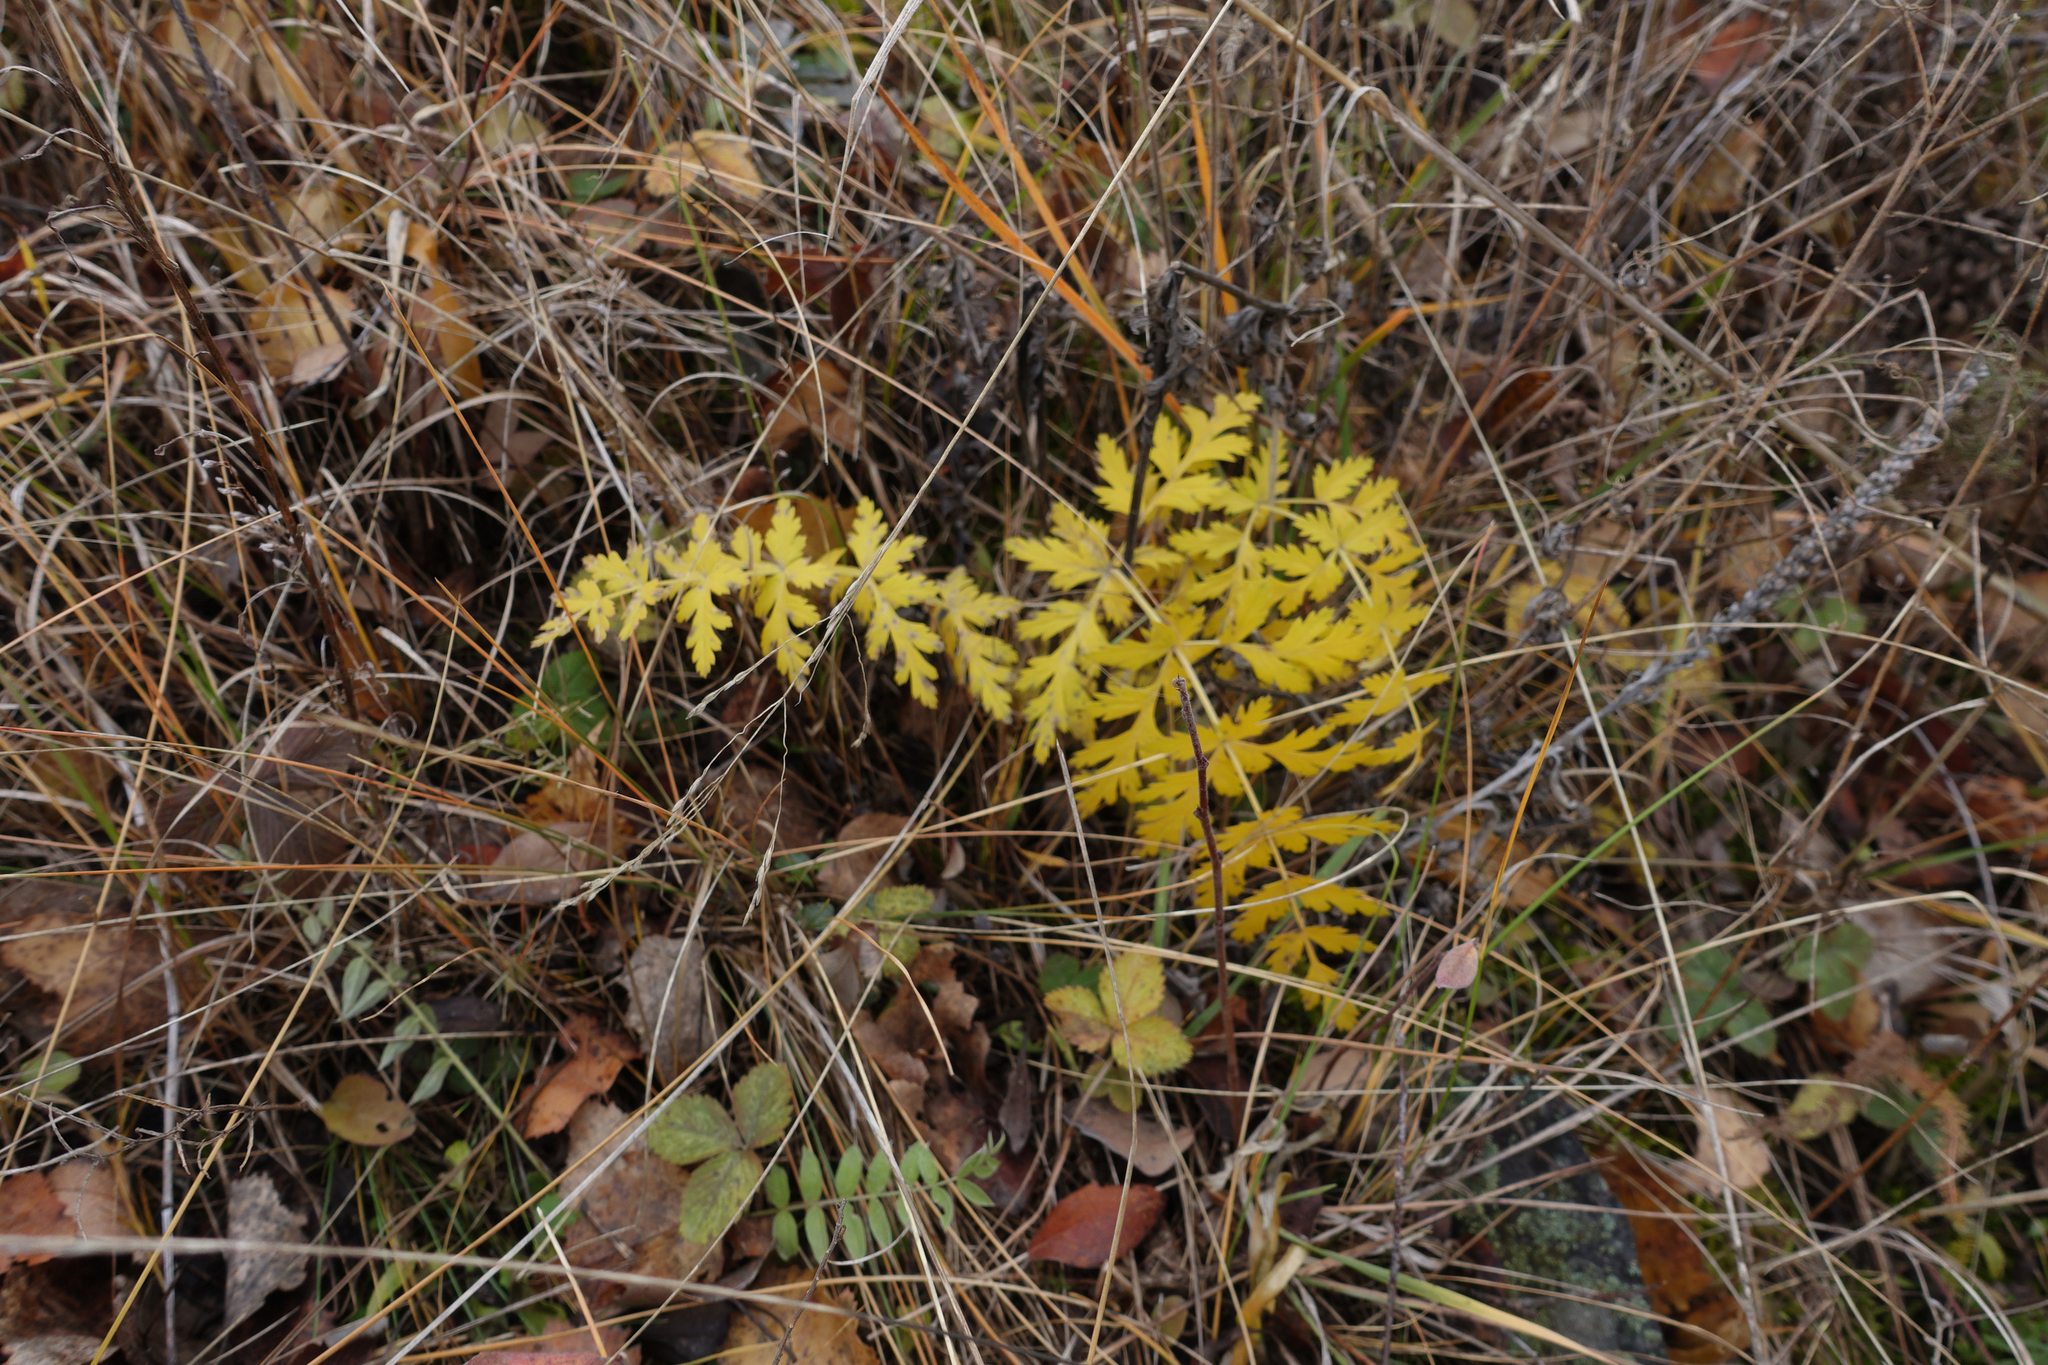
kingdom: Plantae
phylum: Tracheophyta
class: Magnoliopsida
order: Apiales
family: Apiaceae
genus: Seseli
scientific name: Seseli libanotis
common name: Mooncarrot
